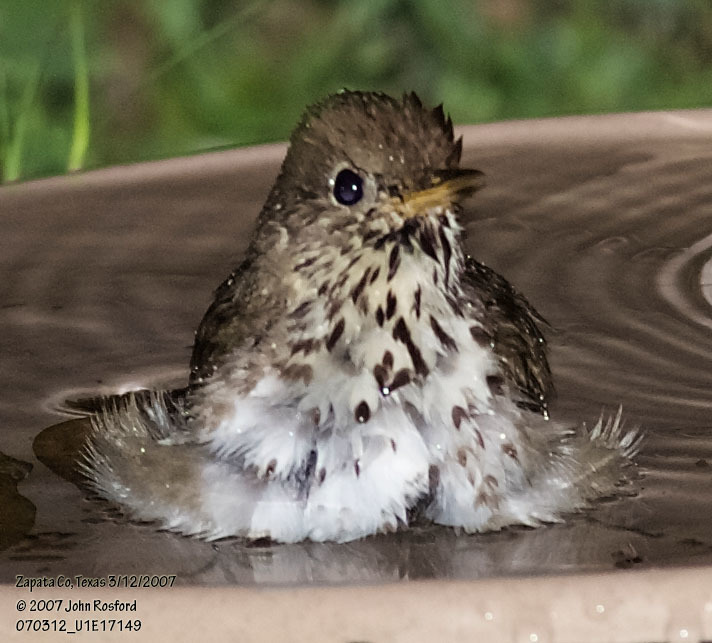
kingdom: Animalia
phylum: Chordata
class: Aves
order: Passeriformes
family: Turdidae
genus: Catharus
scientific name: Catharus guttatus
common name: Hermit thrush
